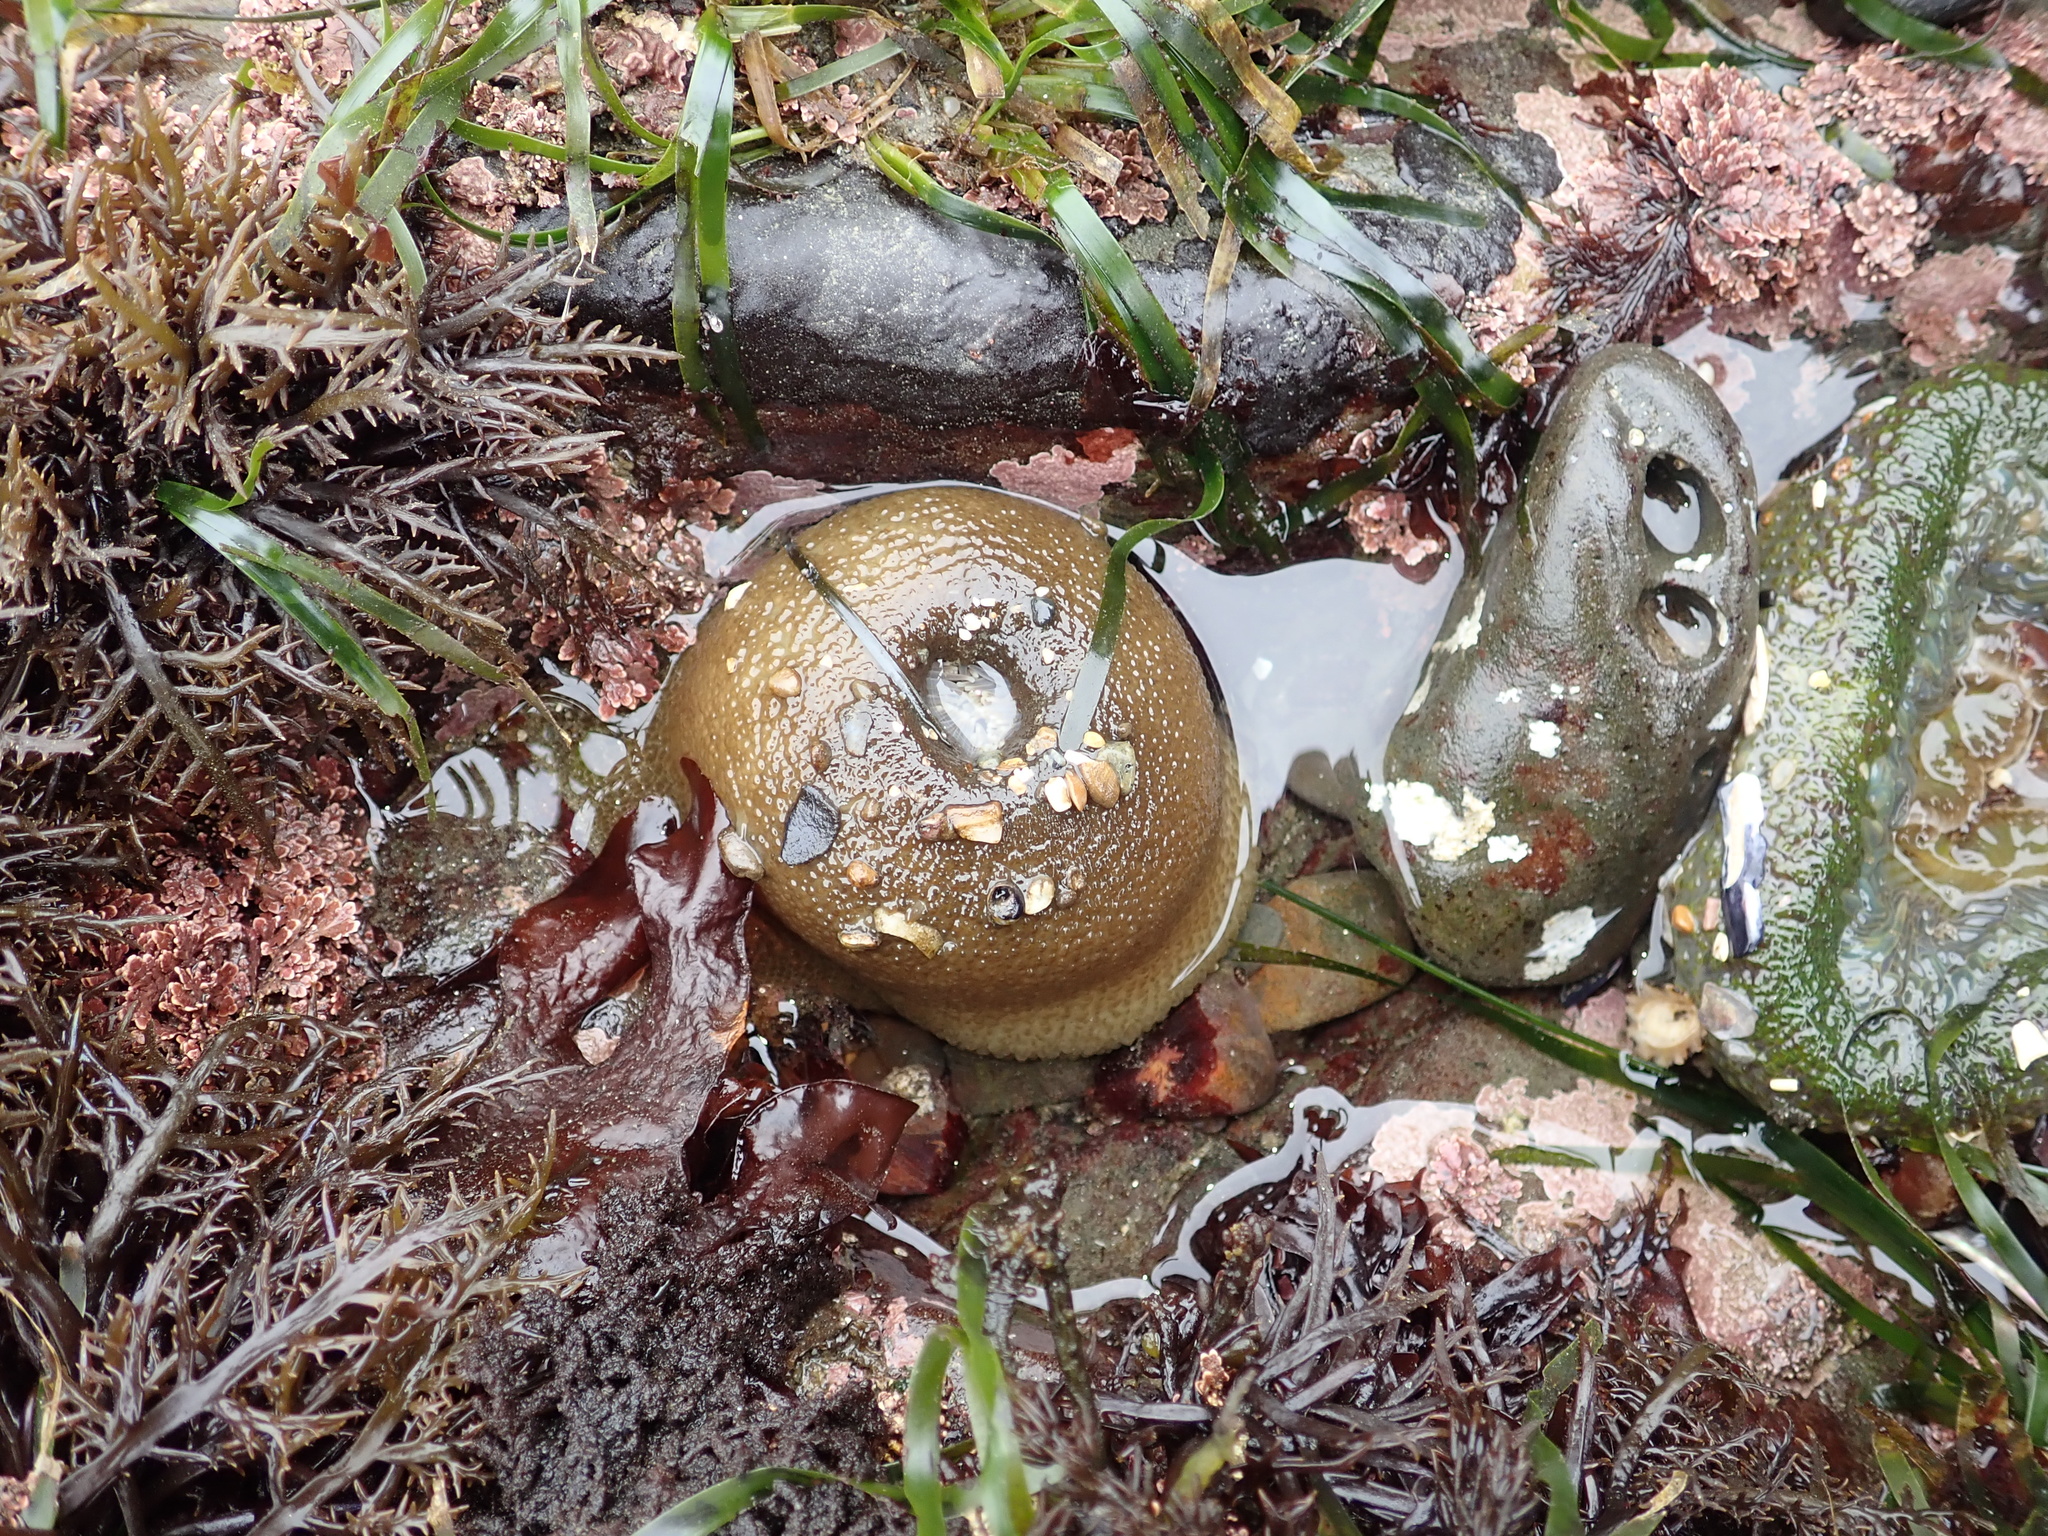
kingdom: Animalia
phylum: Cnidaria
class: Anthozoa
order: Actiniaria
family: Actiniidae
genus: Anthopleura
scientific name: Anthopleura xanthogrammica
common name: Giant green anemone
